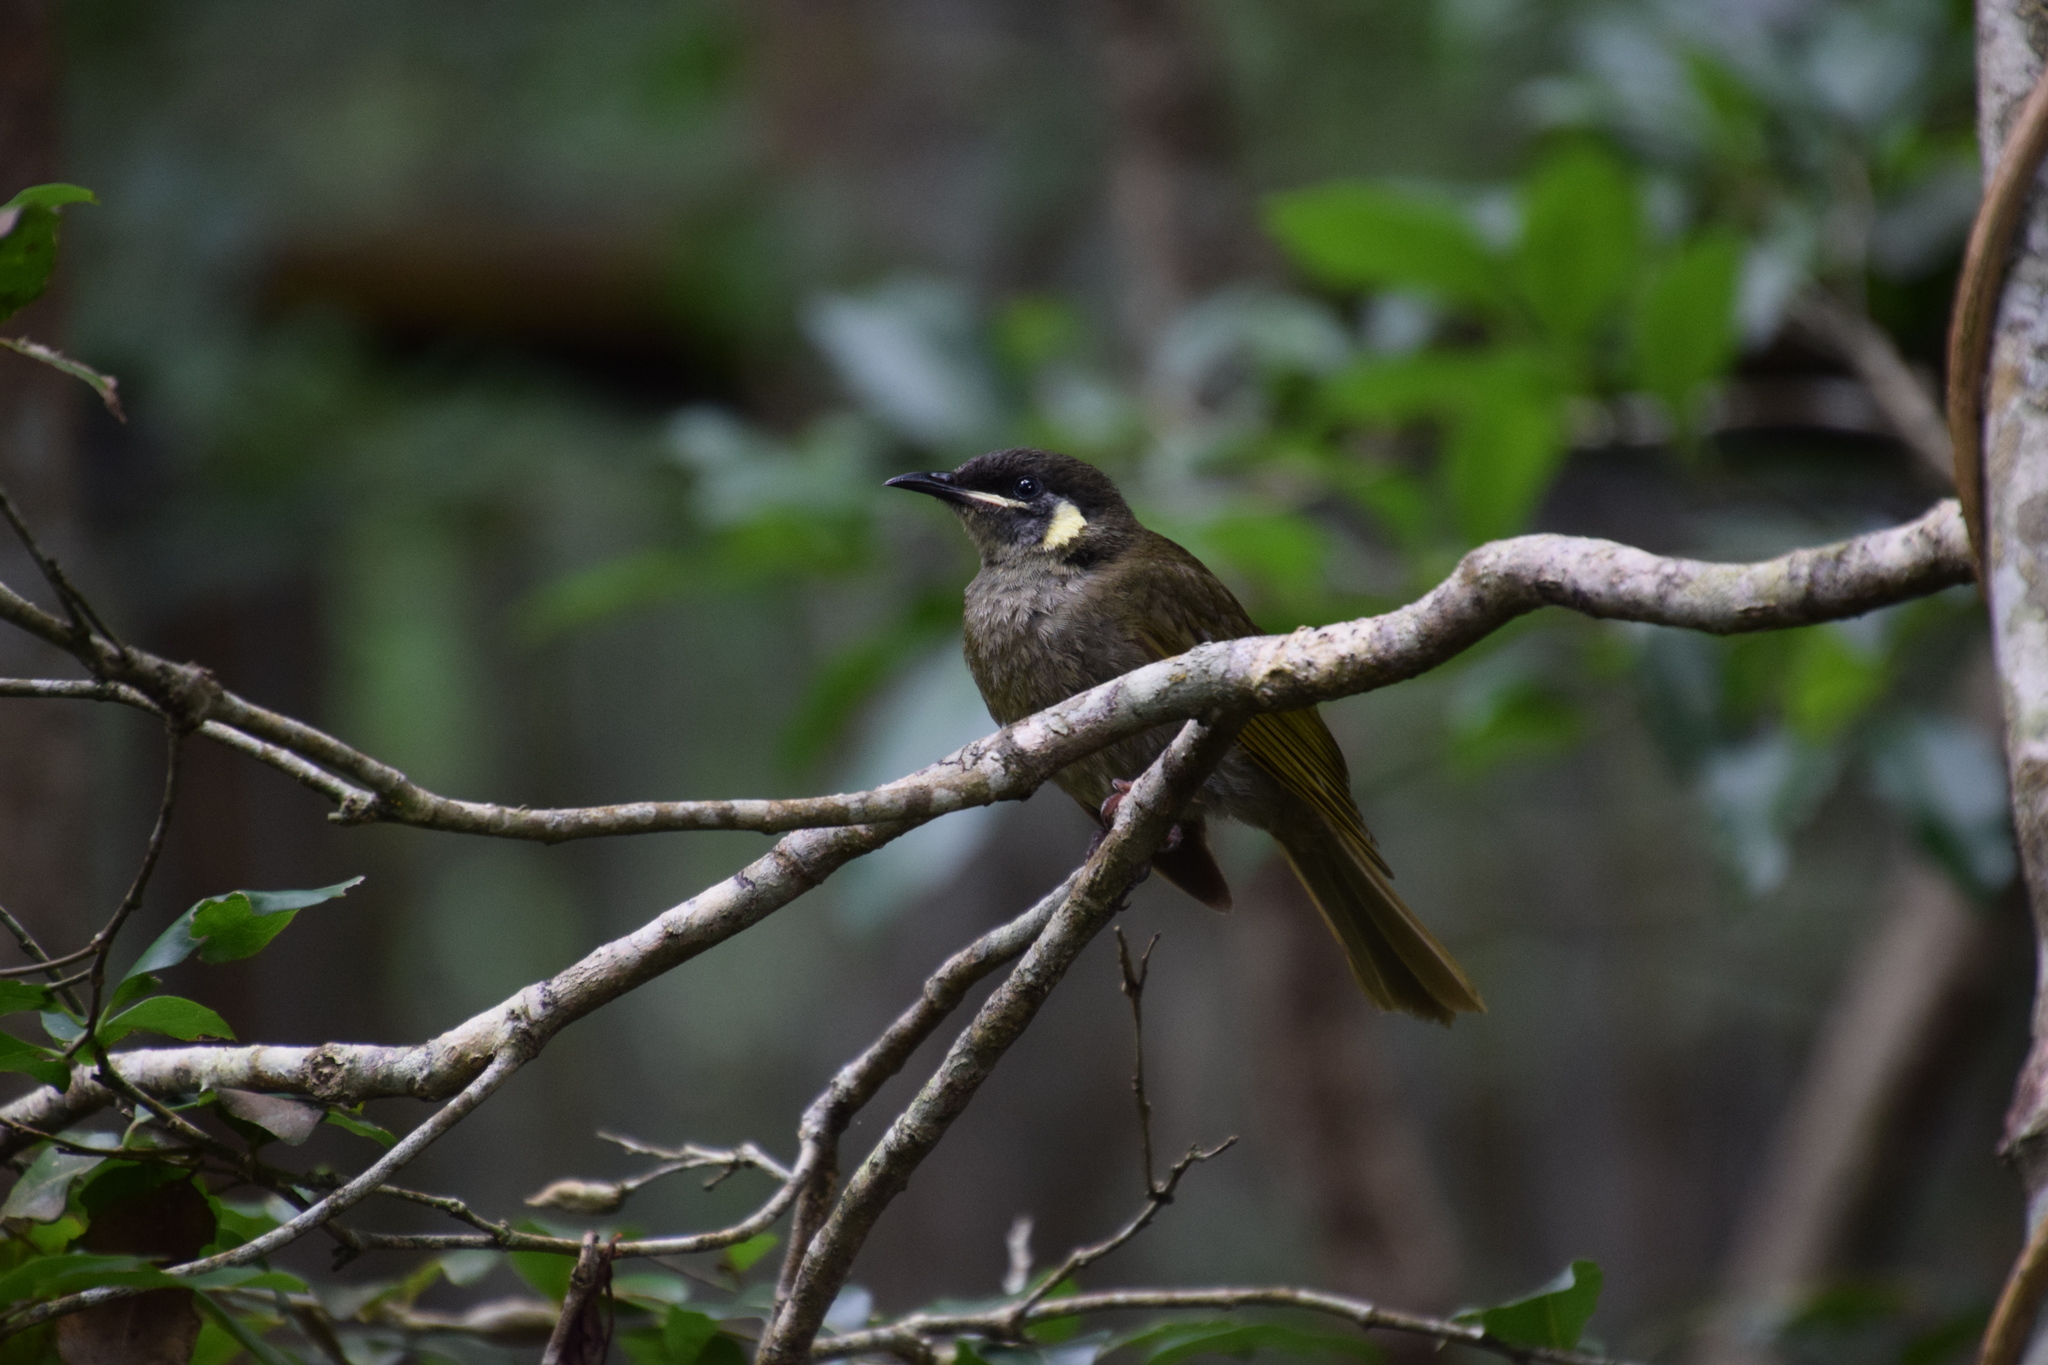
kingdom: Animalia
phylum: Chordata
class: Aves
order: Passeriformes
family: Meliphagidae
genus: Meliphaga
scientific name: Meliphaga lewinii
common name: Lewin's honeyeater
